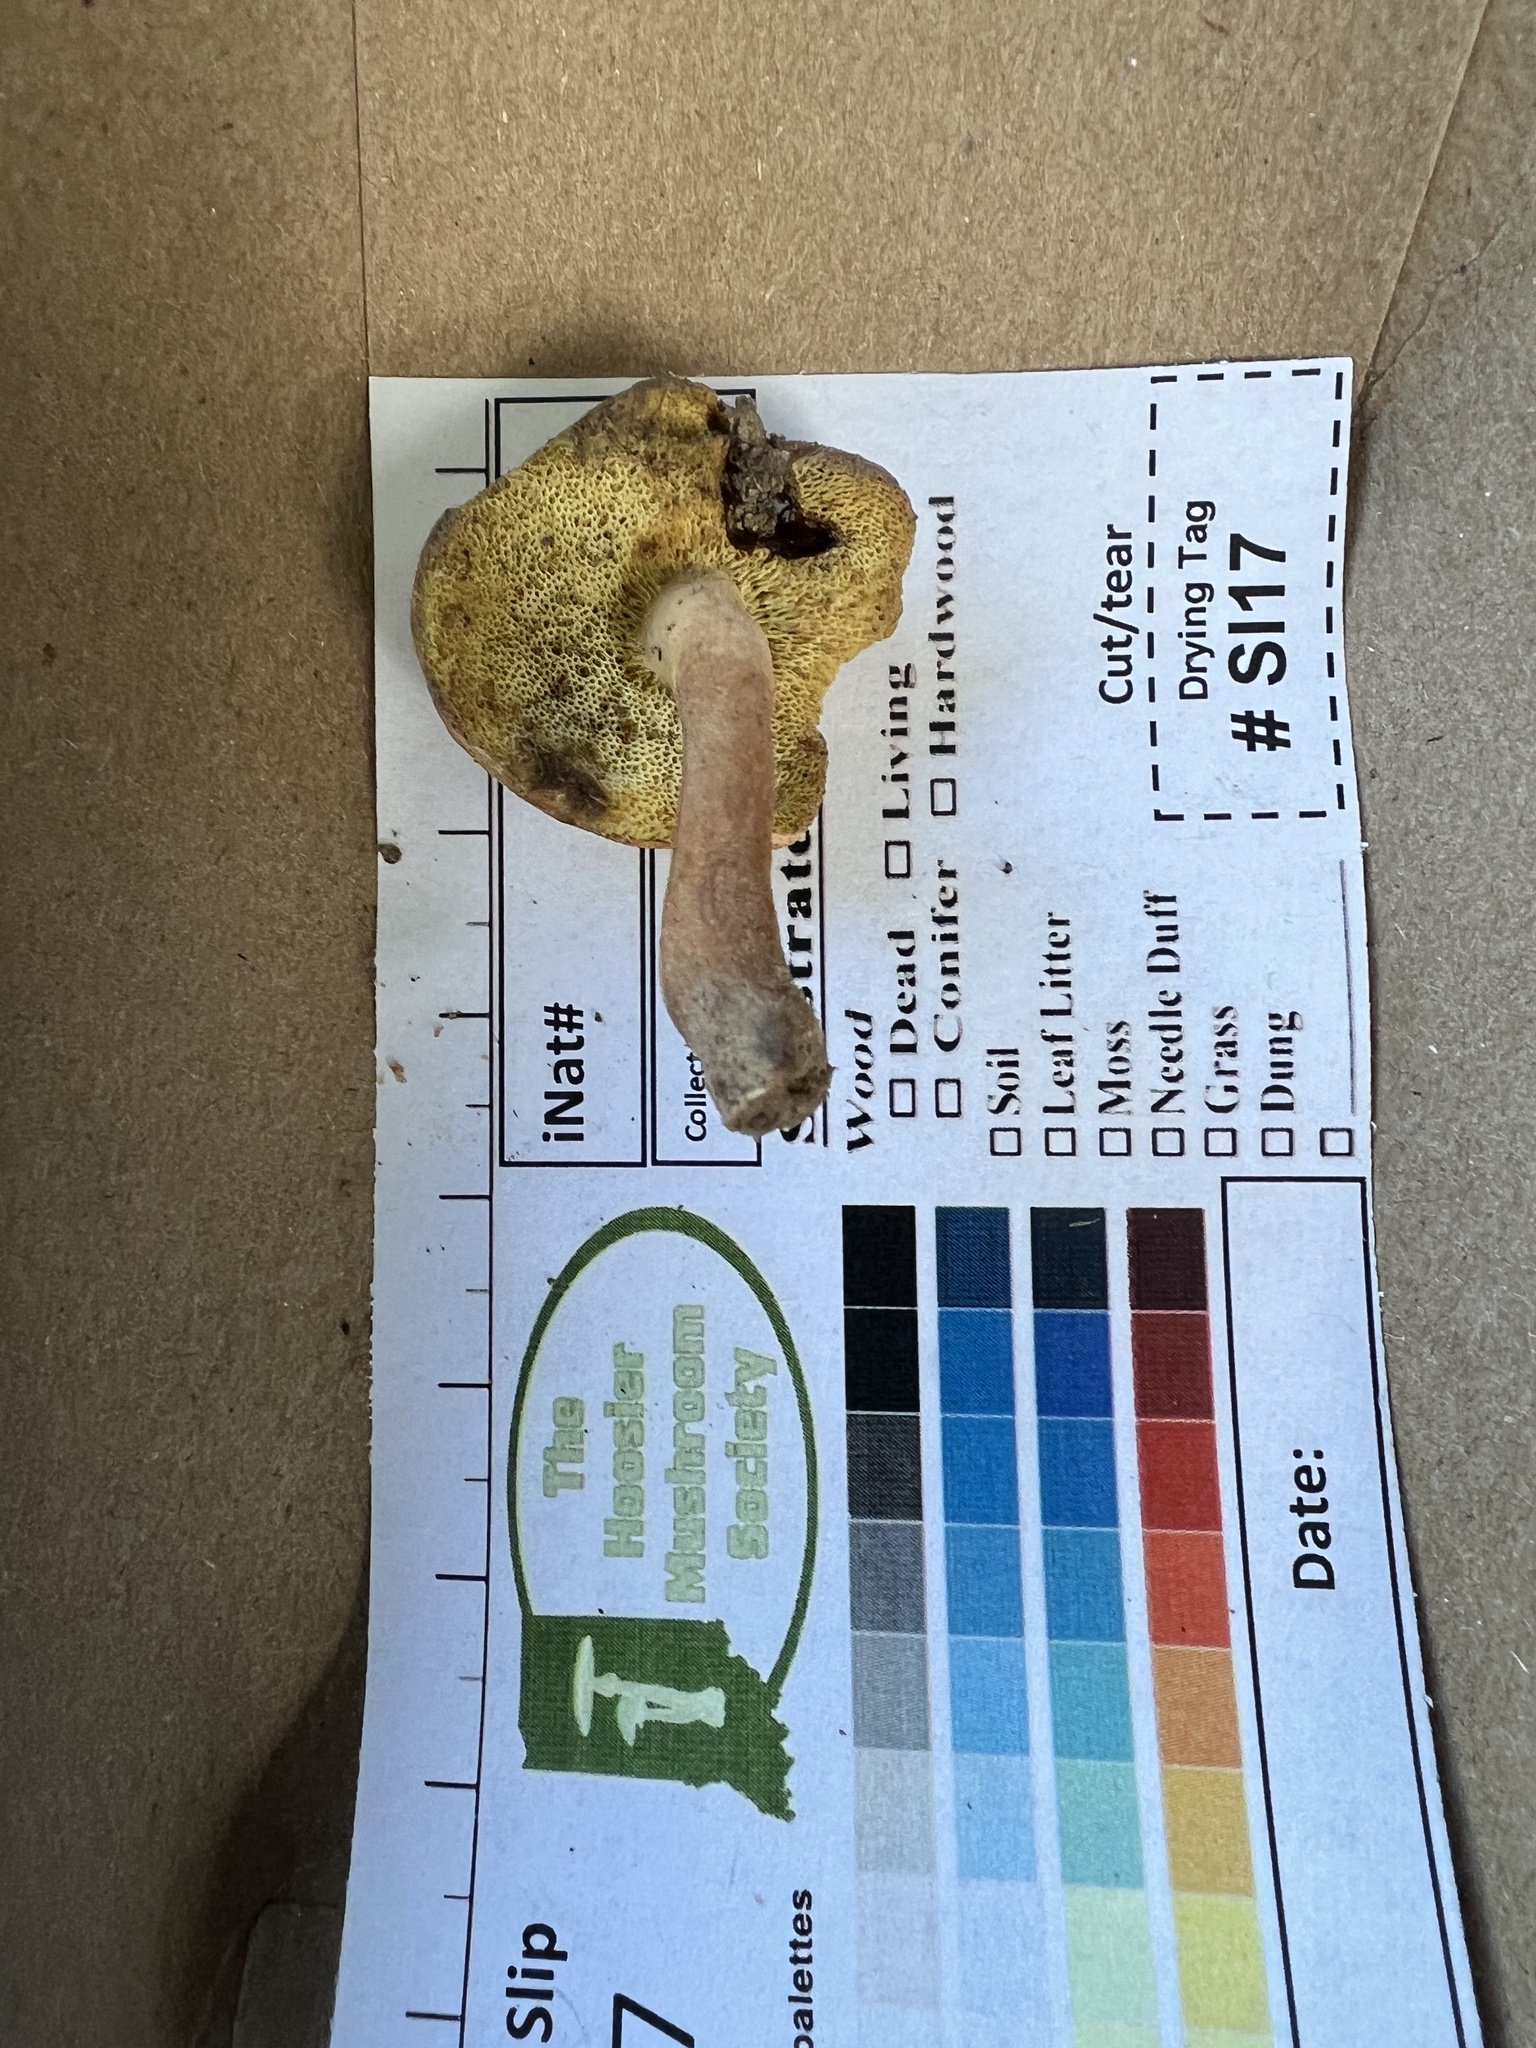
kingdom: Fungi
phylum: Basidiomycota
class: Agaricomycetes
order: Boletales
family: Gyroporaceae
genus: Gyroporus
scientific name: Gyroporus castaneus
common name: Chestnut bolete
